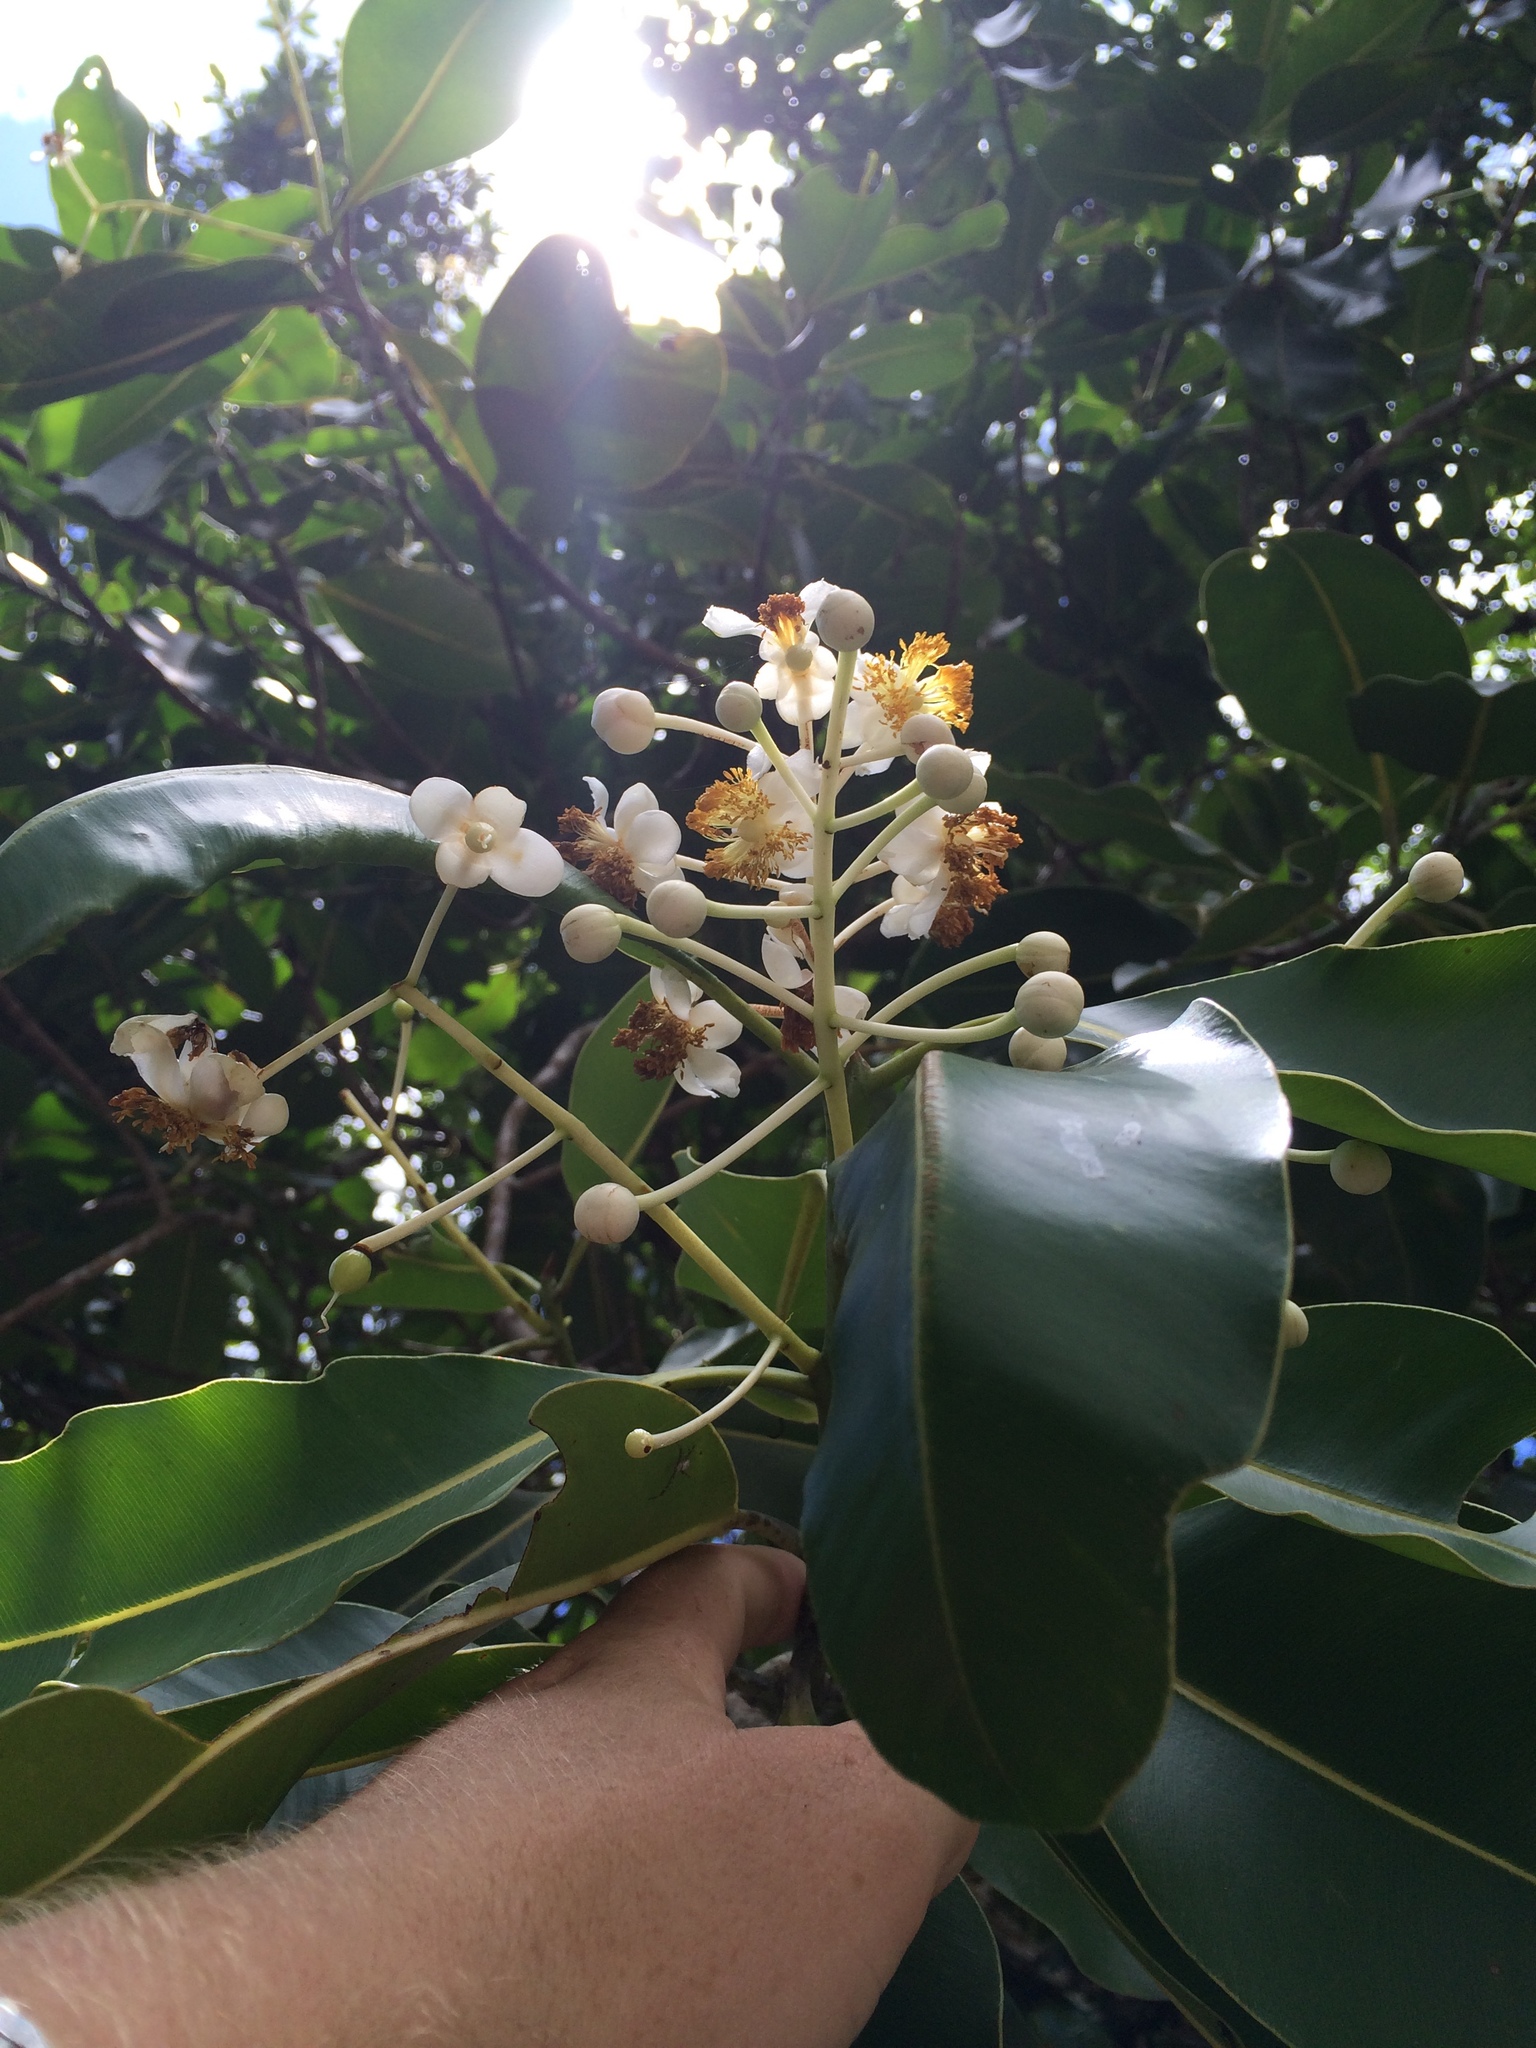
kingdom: Plantae
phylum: Tracheophyta
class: Magnoliopsida
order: Malpighiales
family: Calophyllaceae
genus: Calophyllum
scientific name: Calophyllum inophyllum
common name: Alexandrian laurel
